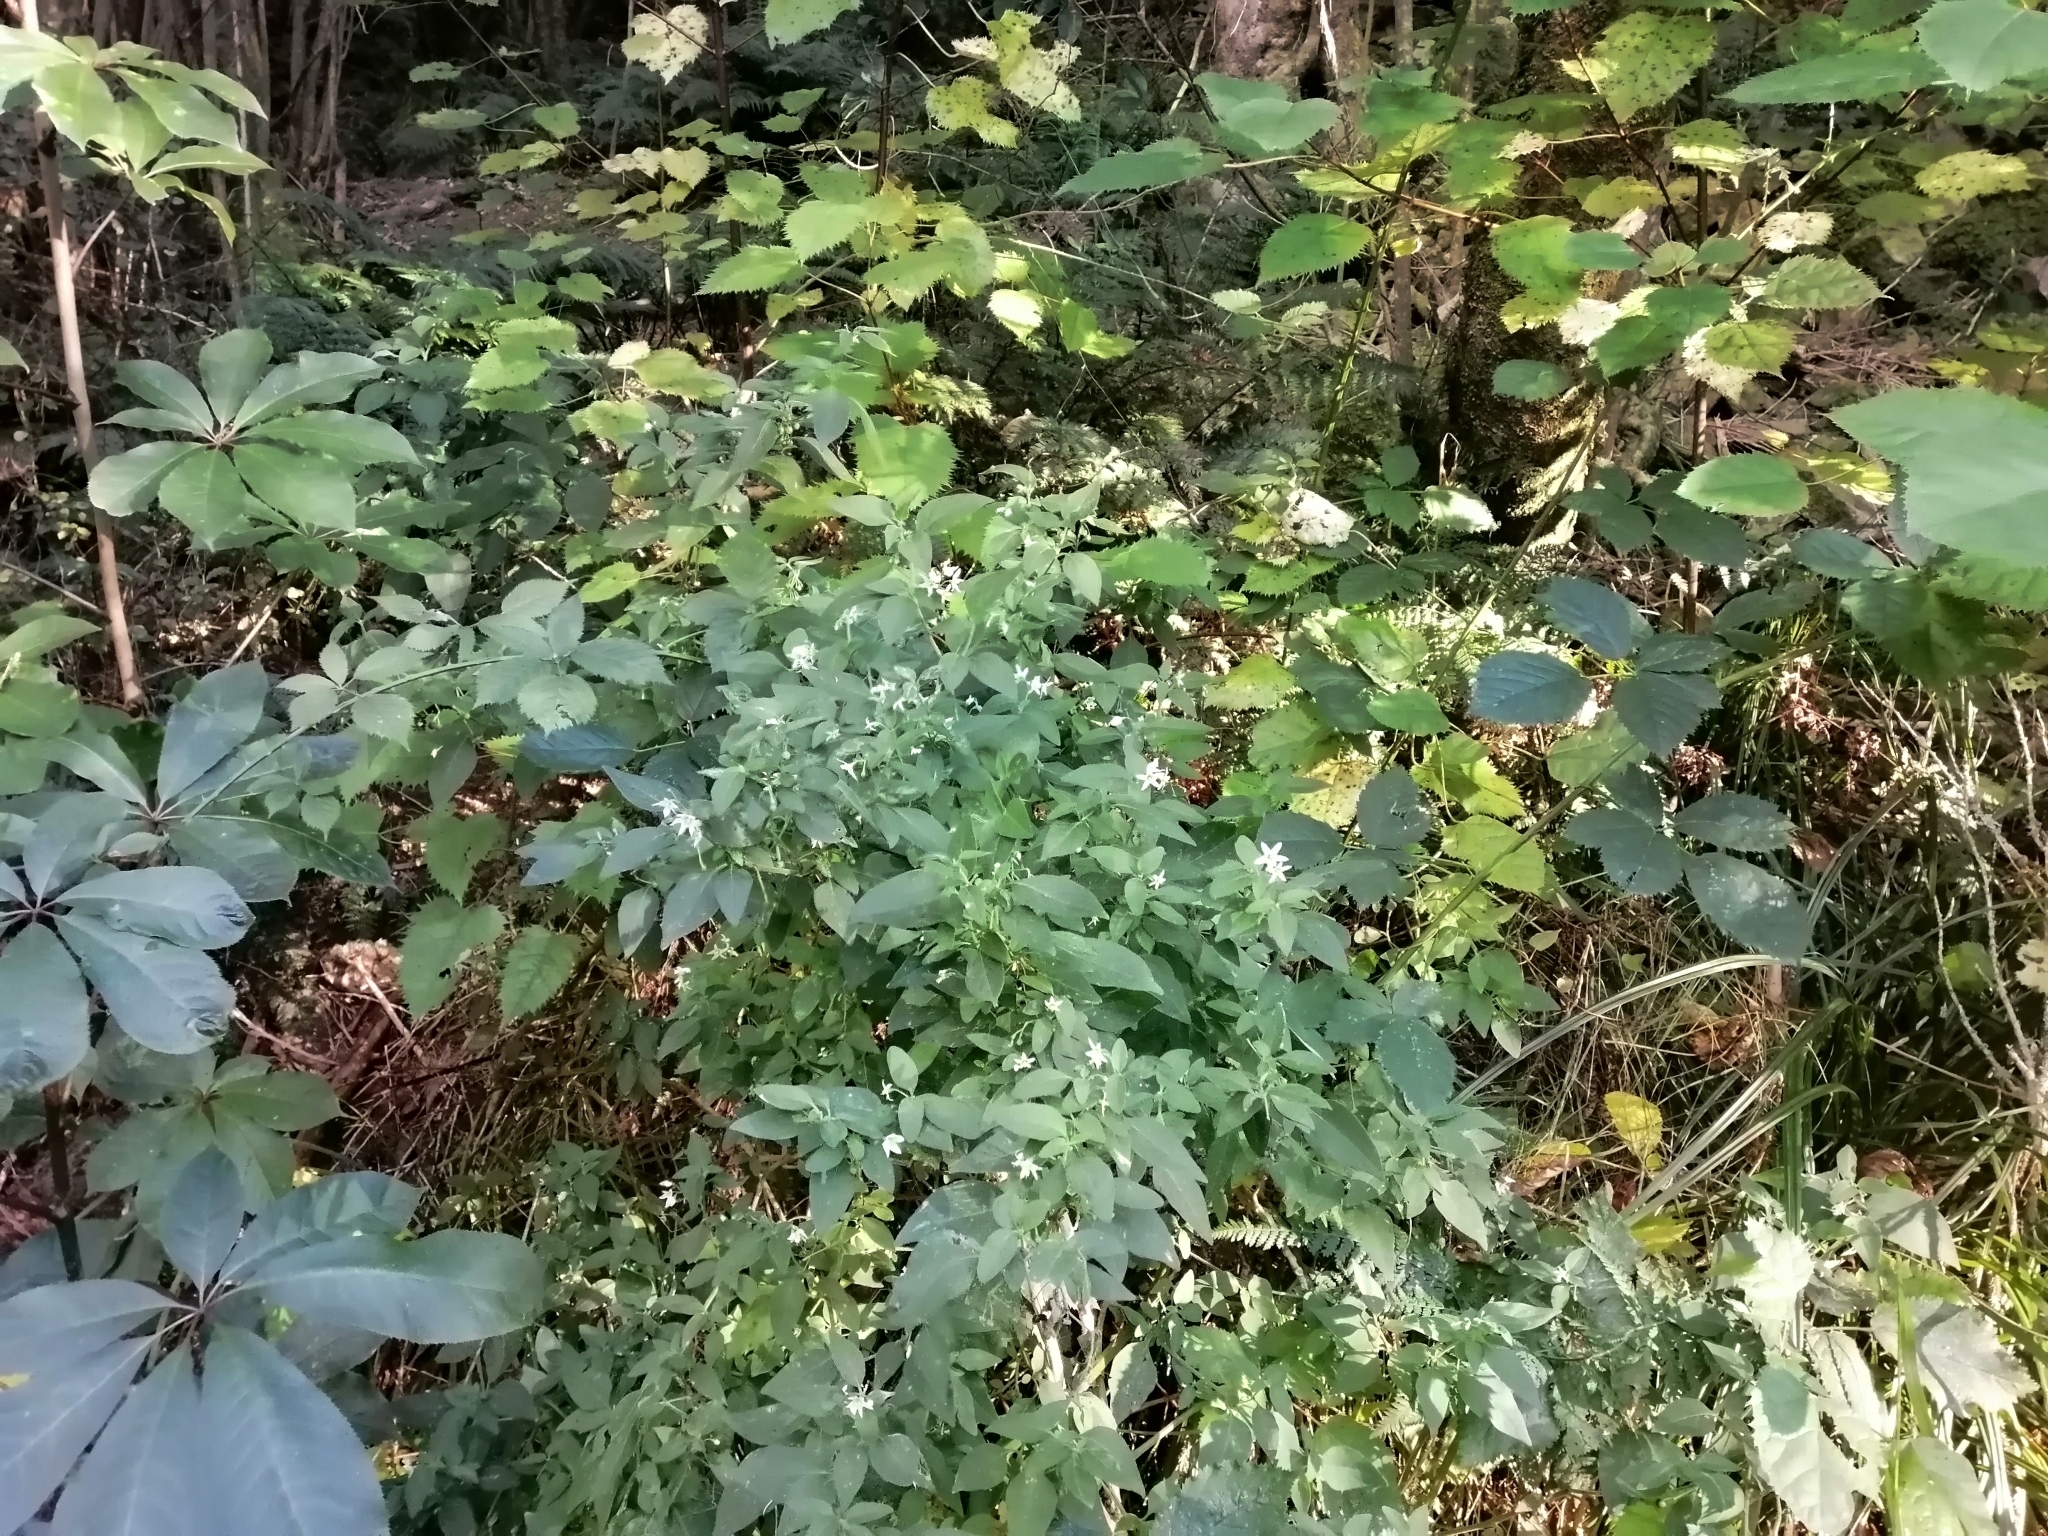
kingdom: Plantae
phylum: Tracheophyta
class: Magnoliopsida
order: Solanales
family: Solanaceae
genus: Solanum
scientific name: Solanum chenopodioides
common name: Tall nightshade
